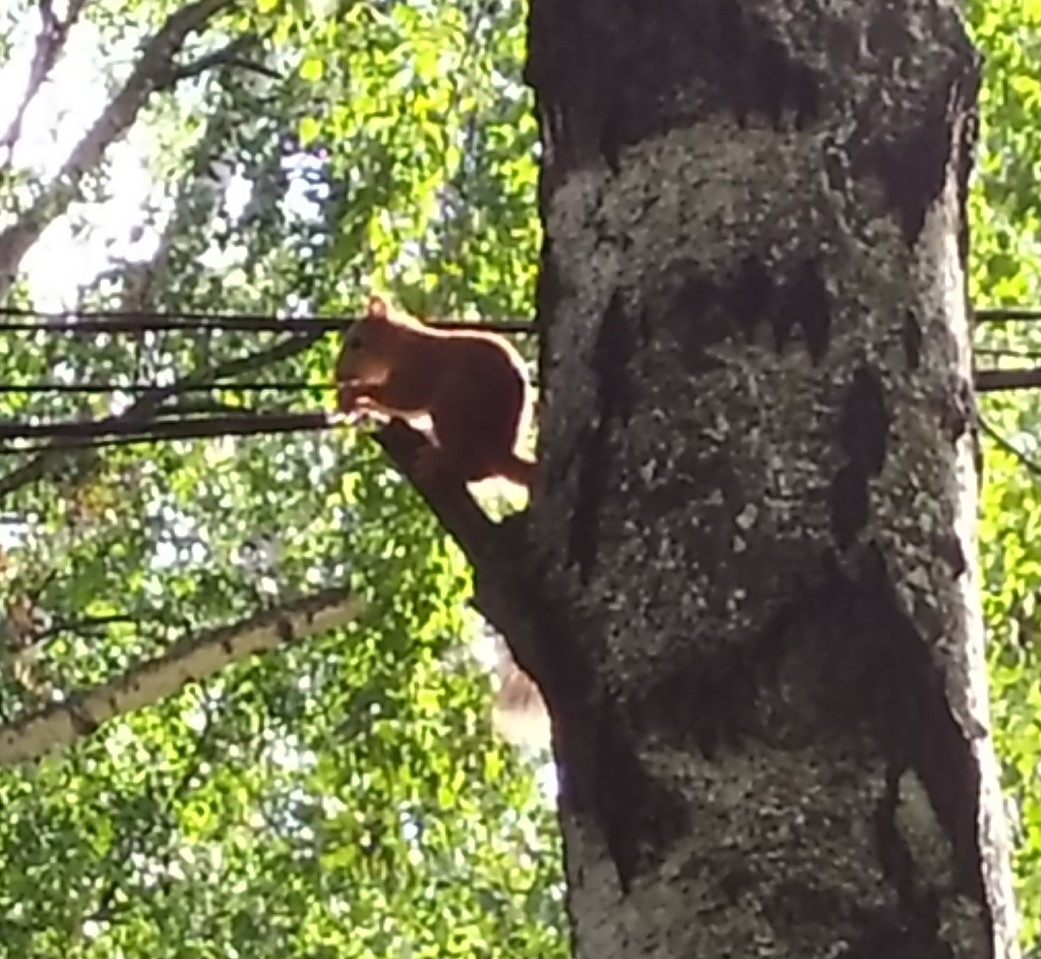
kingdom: Animalia
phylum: Chordata
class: Mammalia
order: Rodentia
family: Sciuridae
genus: Sciurus
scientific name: Sciurus vulgaris
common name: Eurasian red squirrel
